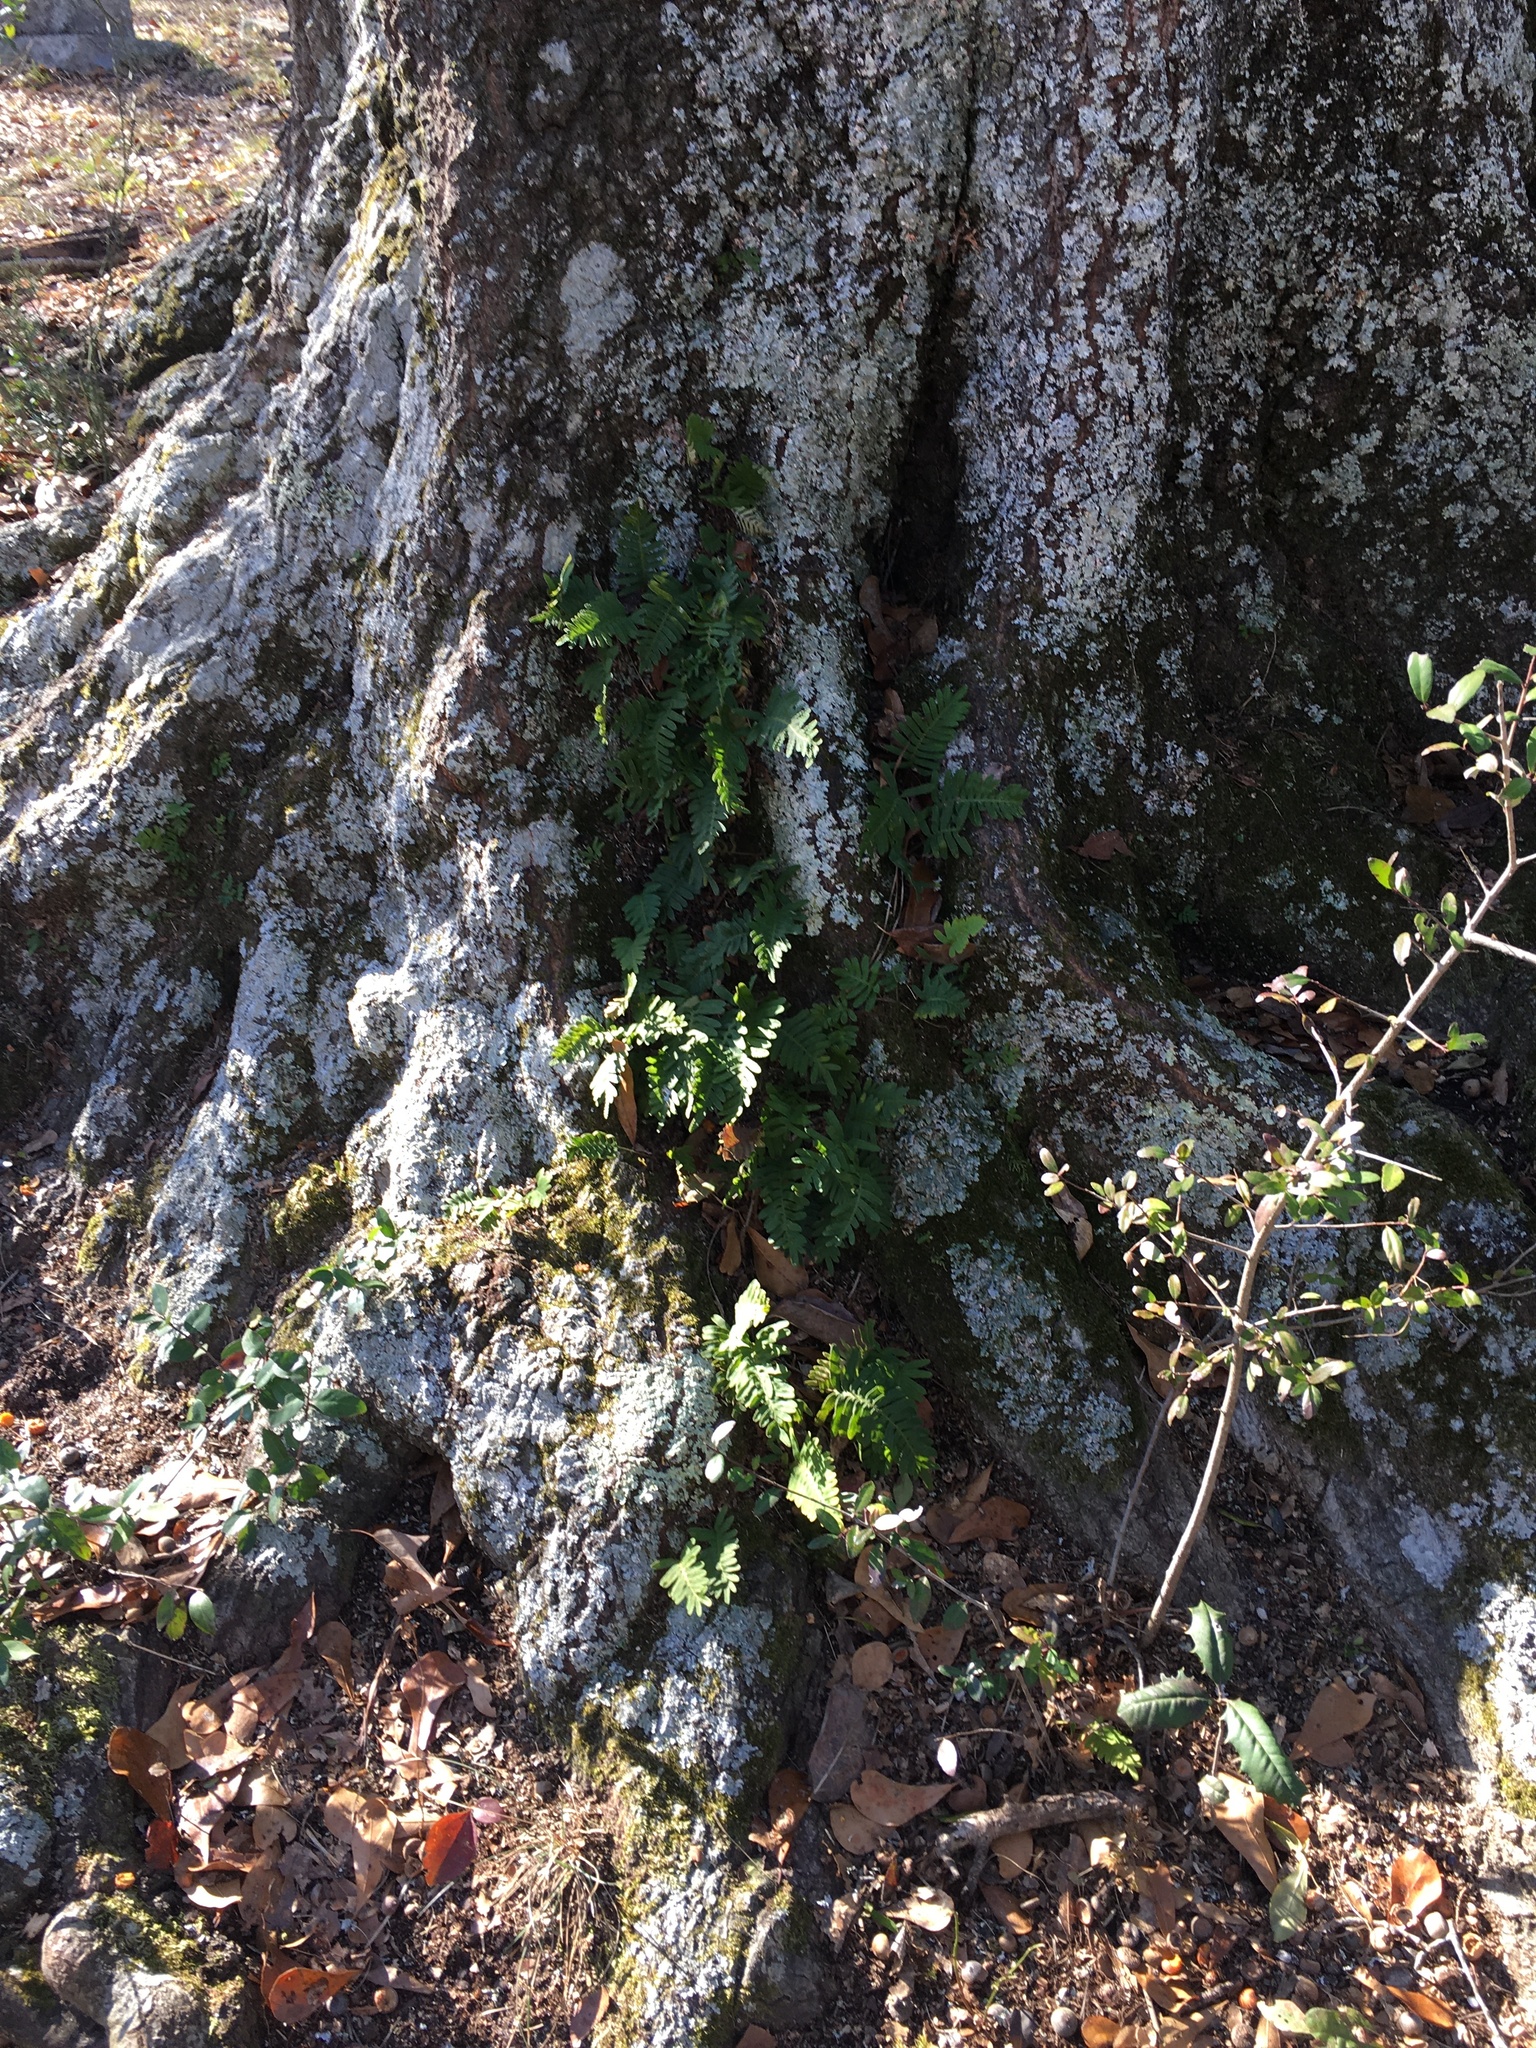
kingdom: Plantae
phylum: Tracheophyta
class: Polypodiopsida
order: Polypodiales
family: Polypodiaceae
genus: Pleopeltis
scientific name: Pleopeltis michauxiana
